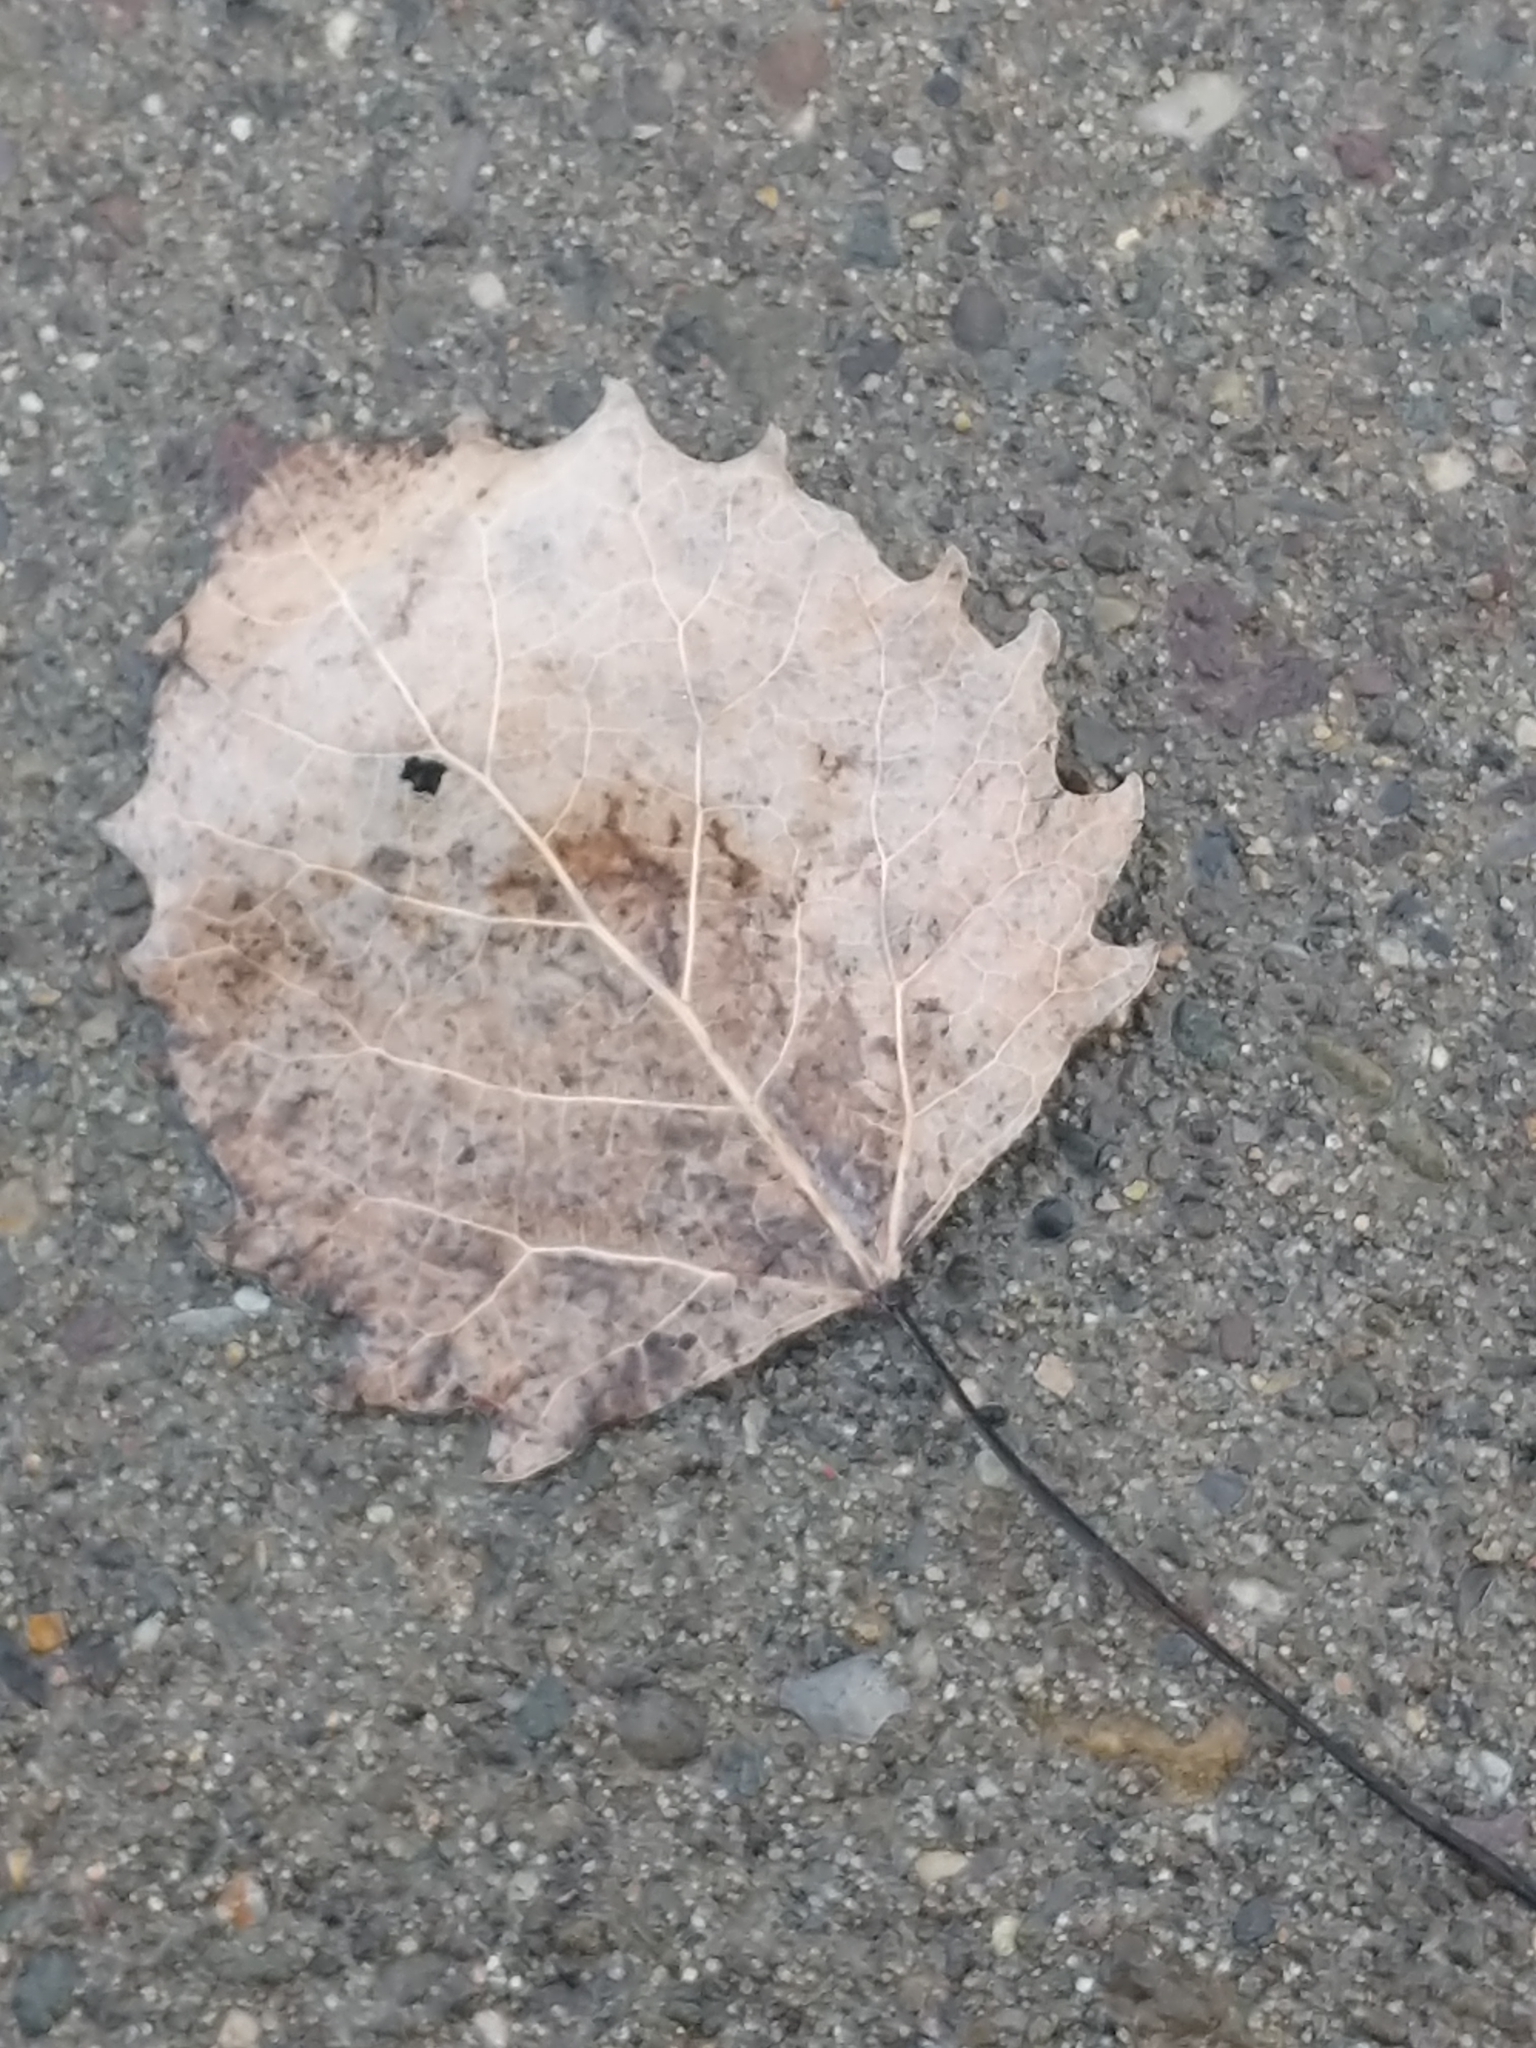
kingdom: Plantae
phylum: Tracheophyta
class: Magnoliopsida
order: Malpighiales
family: Salicaceae
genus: Populus
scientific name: Populus grandidentata
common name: Bigtooth aspen
